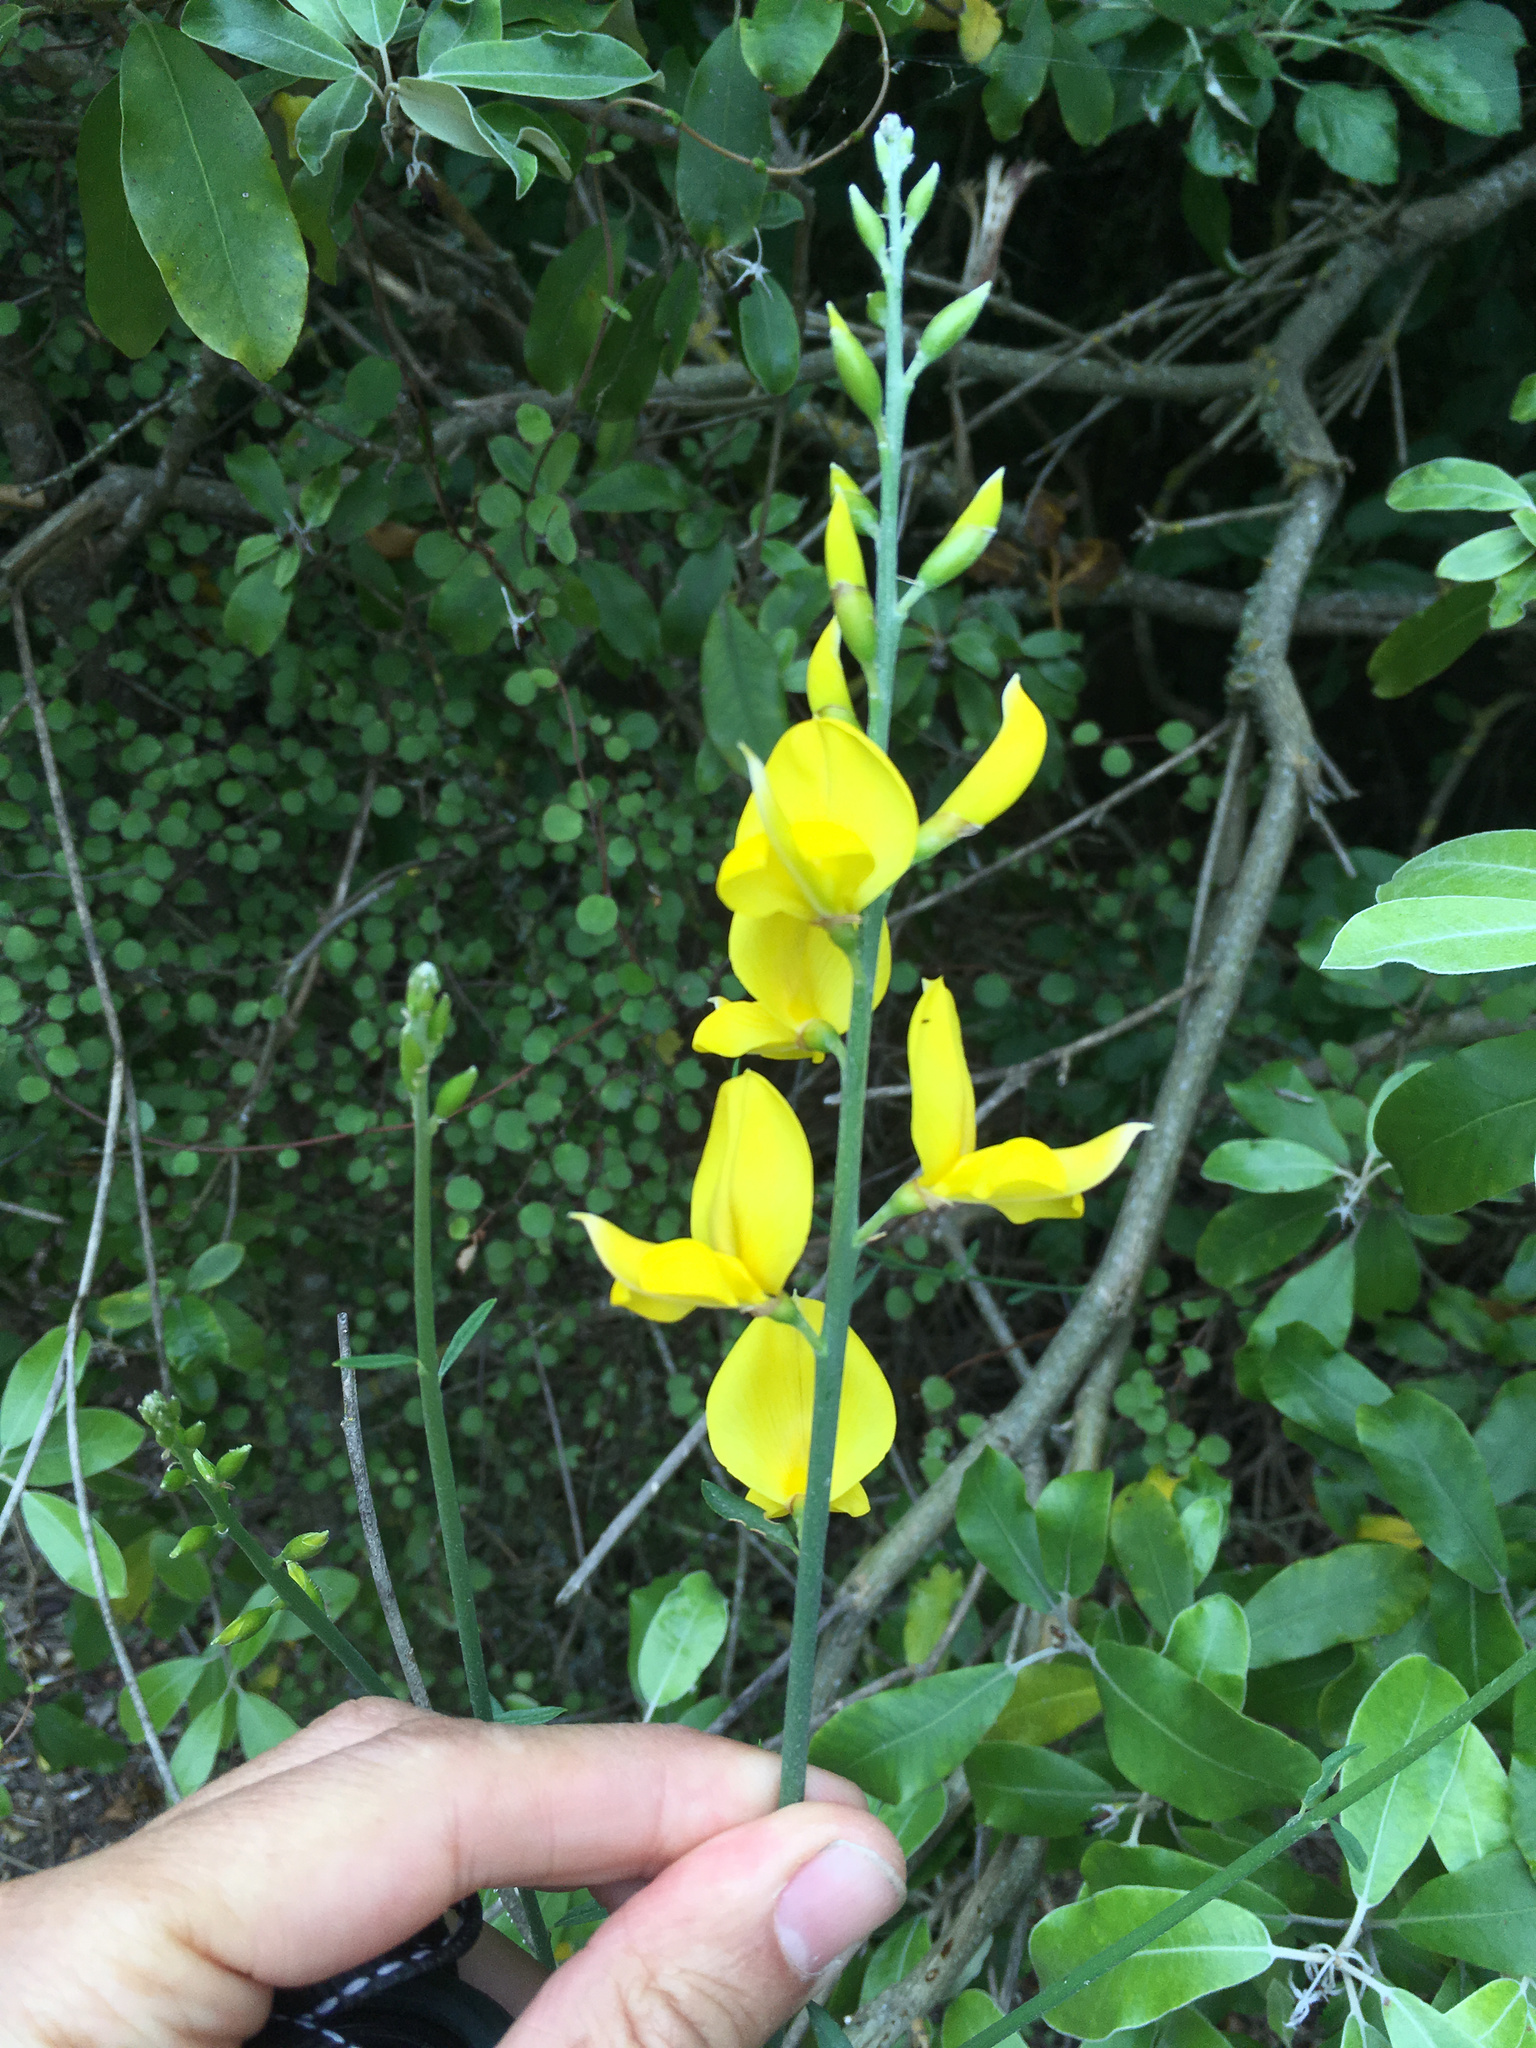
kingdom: Plantae
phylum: Tracheophyta
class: Magnoliopsida
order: Fabales
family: Fabaceae
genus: Spartium
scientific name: Spartium junceum
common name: Spanish broom
